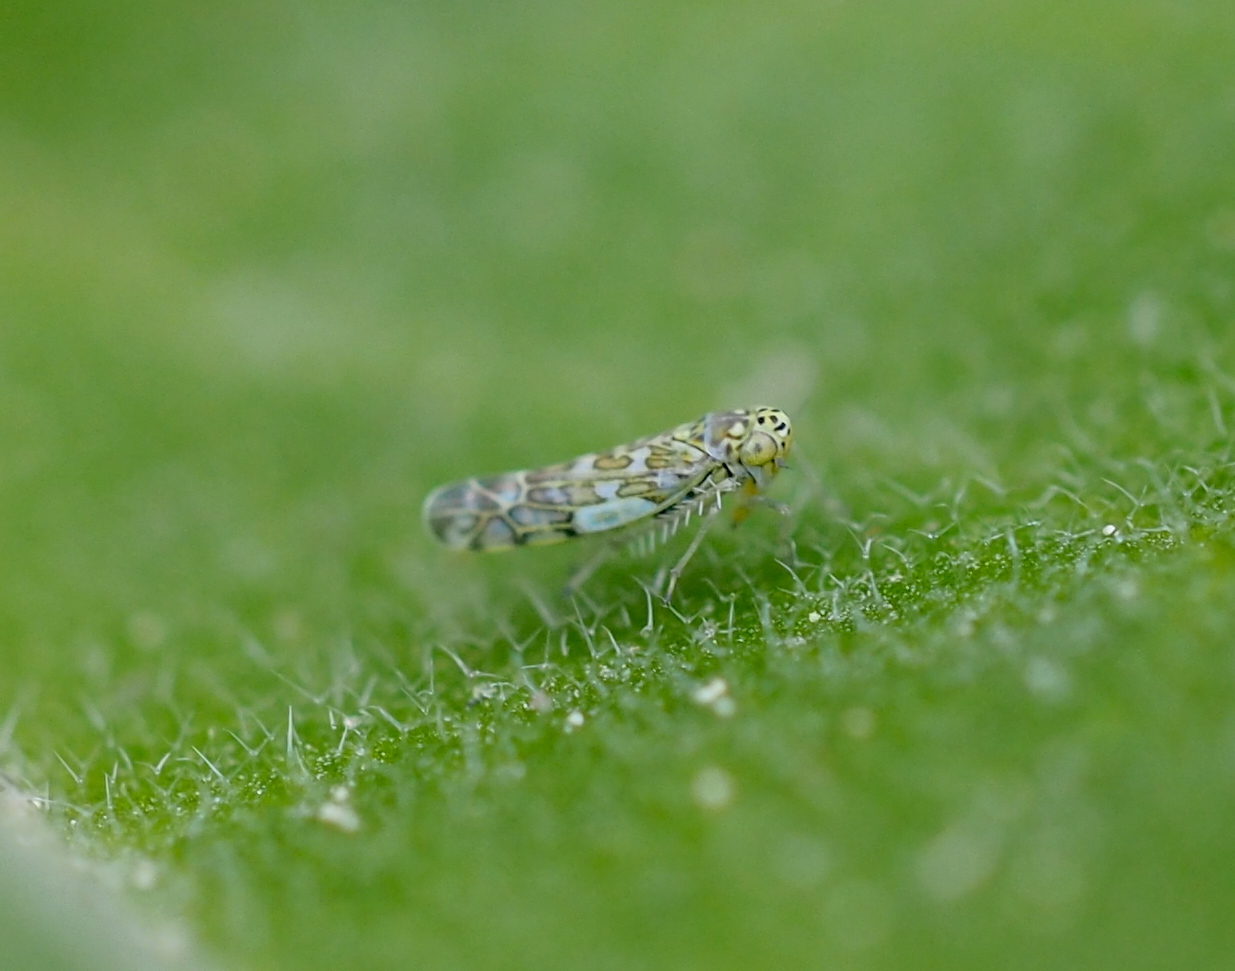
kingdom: Animalia
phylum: Arthropoda
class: Insecta
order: Hemiptera
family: Cicadellidae
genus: Eupteryx
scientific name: Eupteryx decemnotata
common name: Ligurian leafhopper
